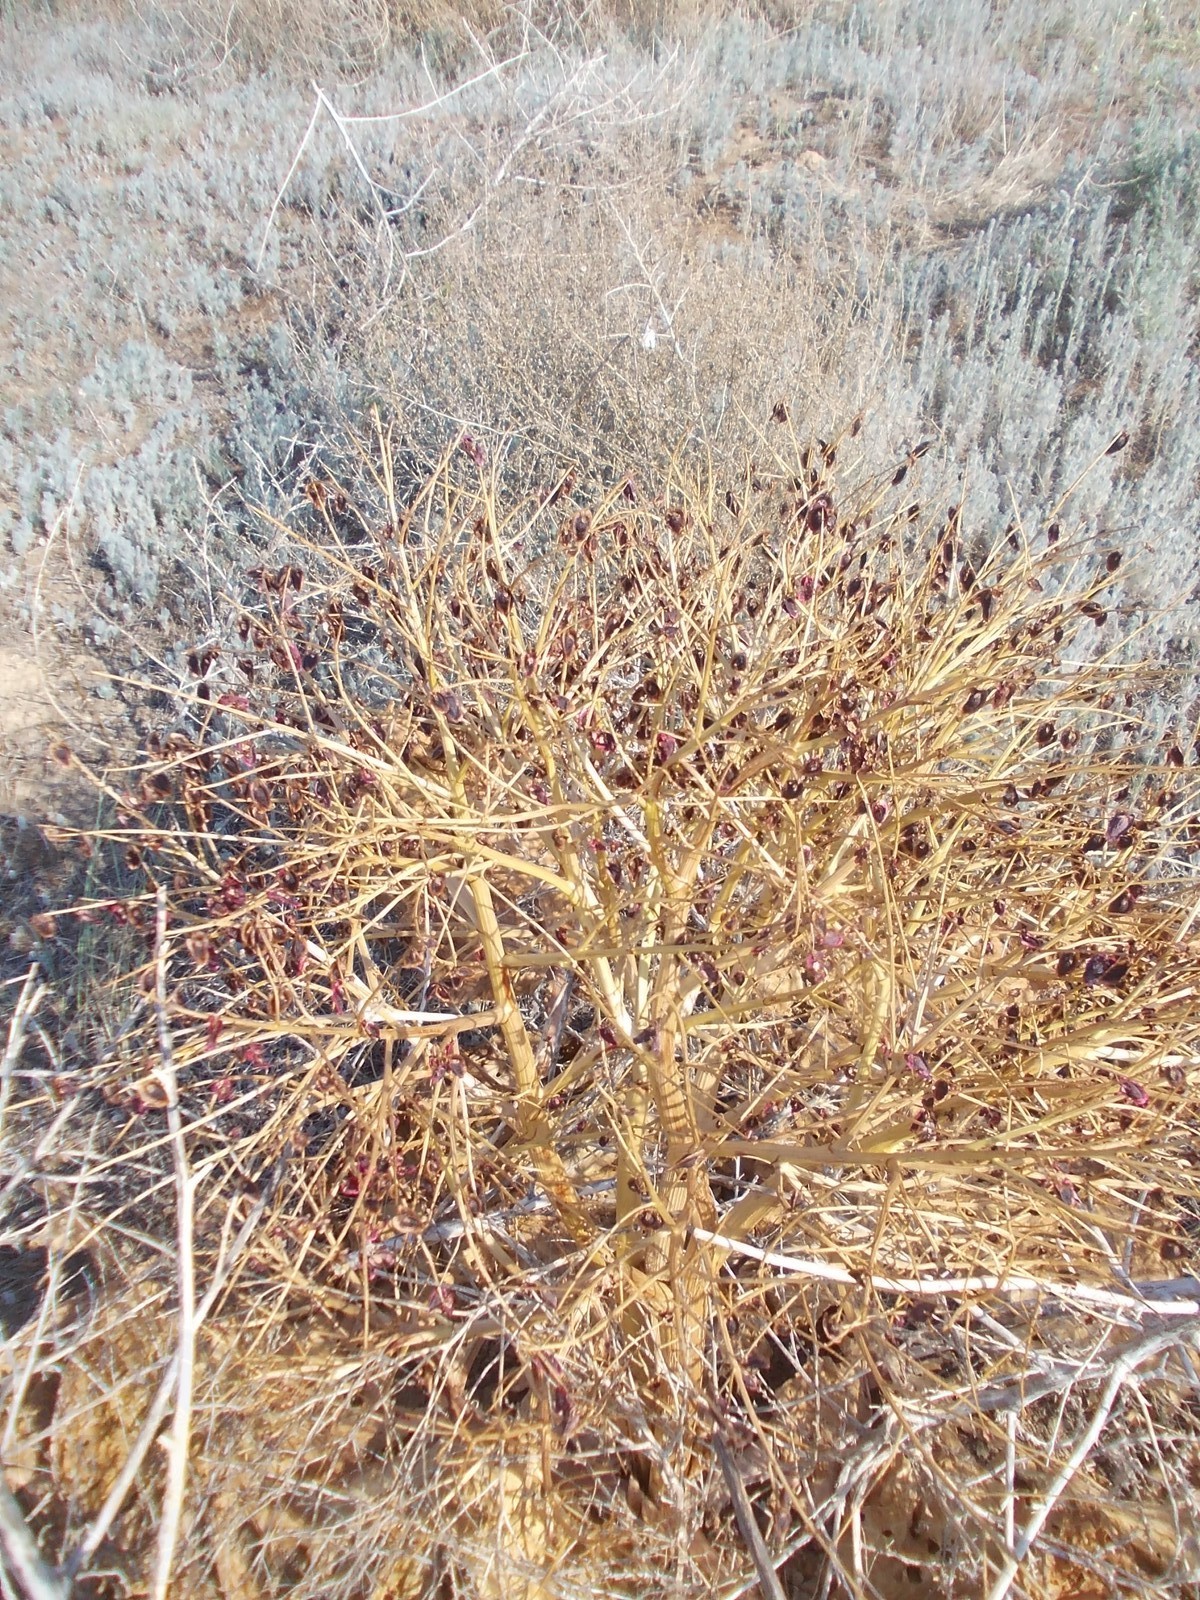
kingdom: Plantae
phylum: Tracheophyta
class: Magnoliopsida
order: Caryophyllales
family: Polygonaceae
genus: Rheum
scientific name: Rheum tataricum
